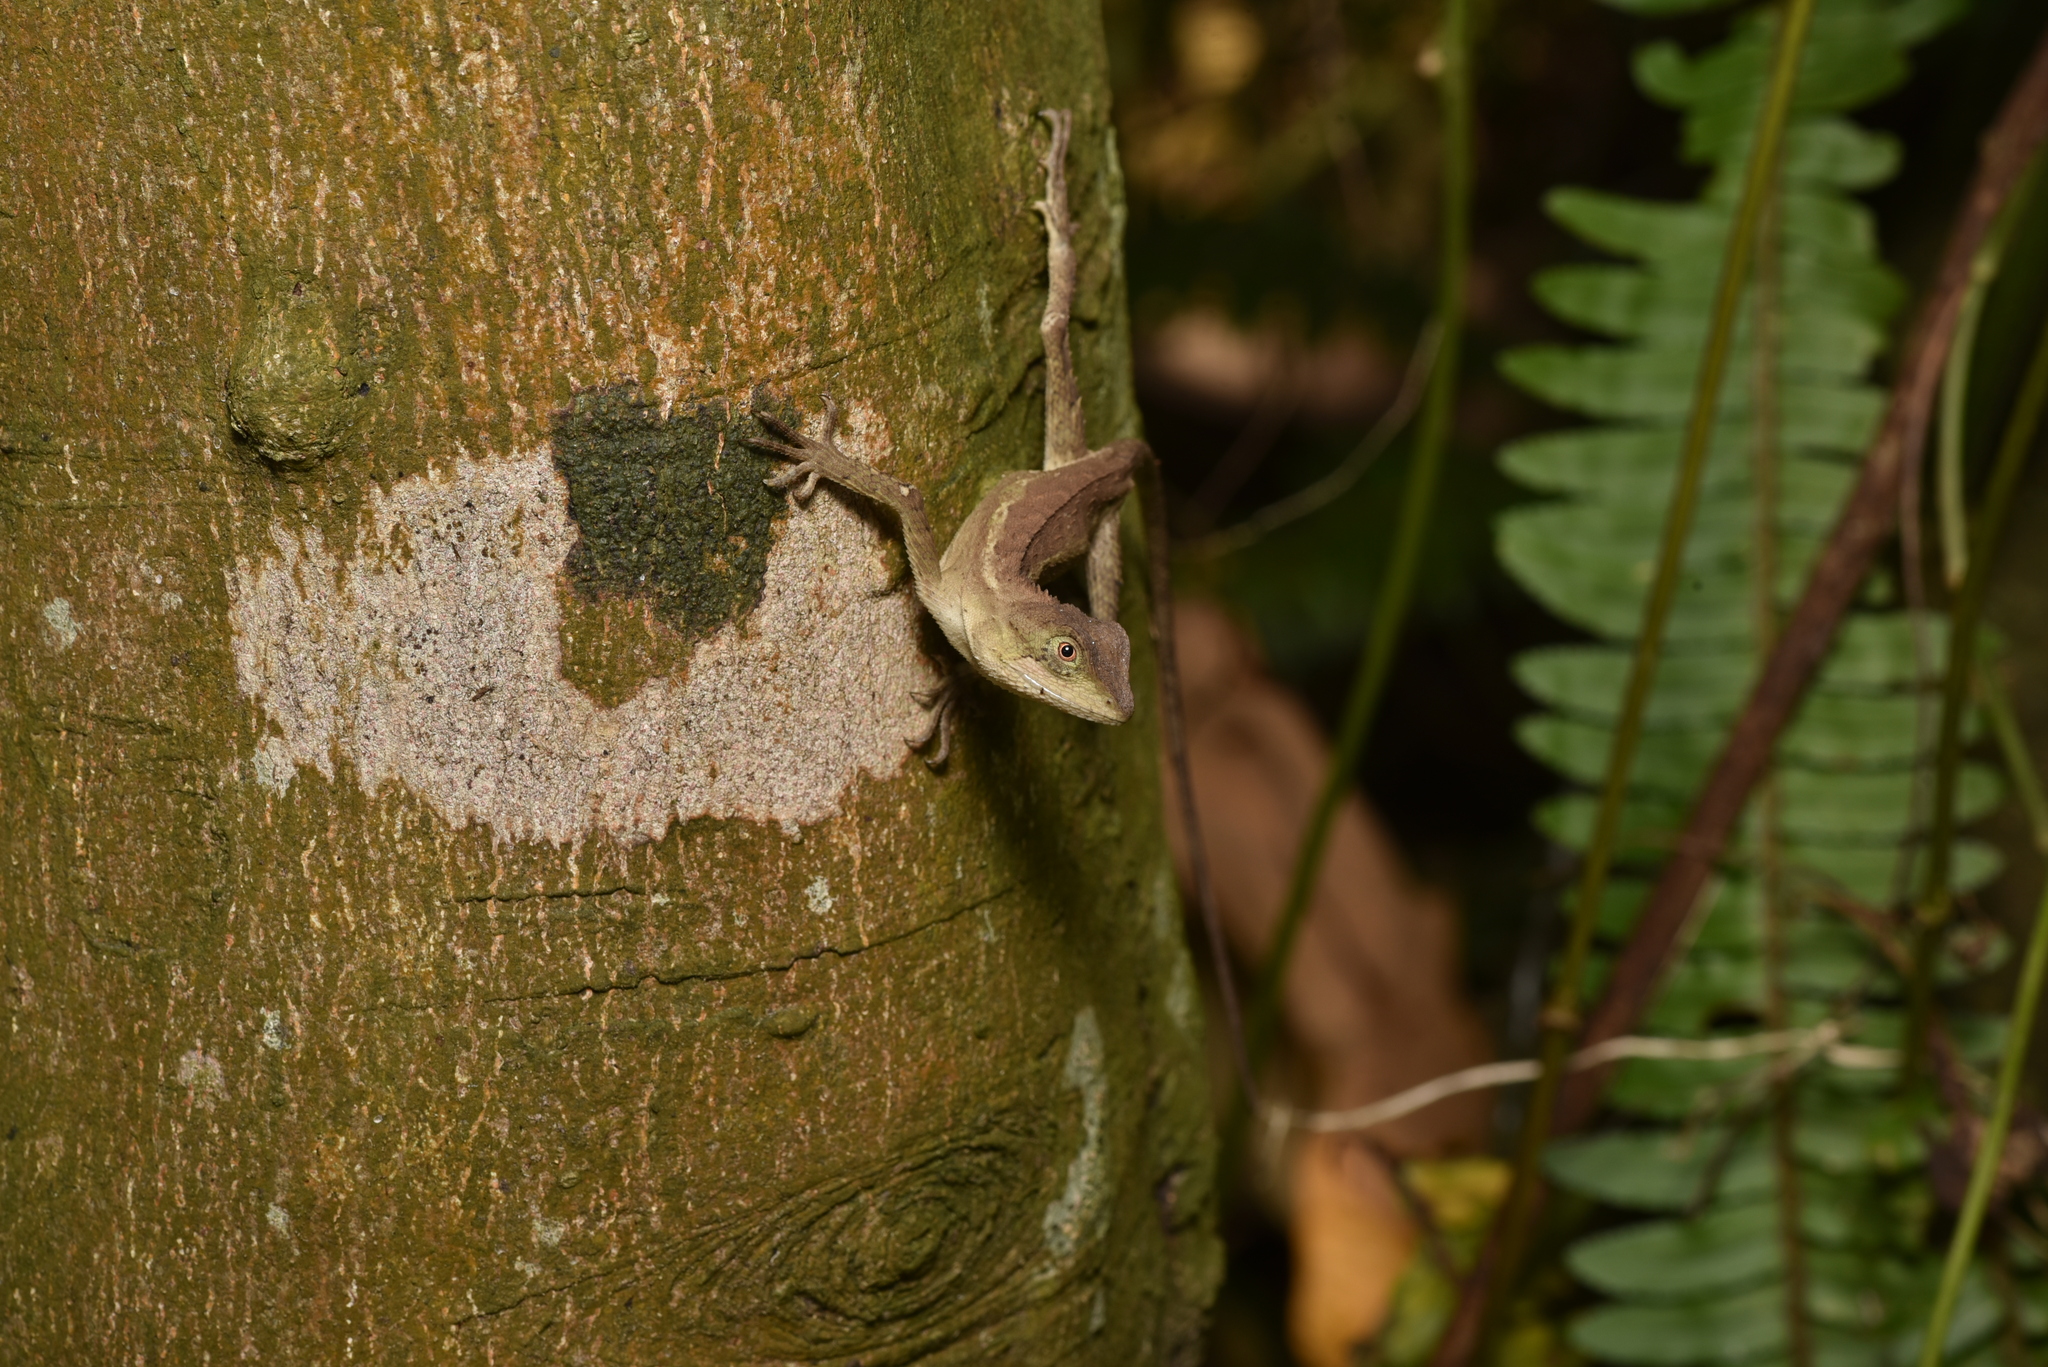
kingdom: Animalia
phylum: Chordata
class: Squamata
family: Agamidae
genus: Diploderma
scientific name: Diploderma swinhonis
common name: Taiwan japalure
